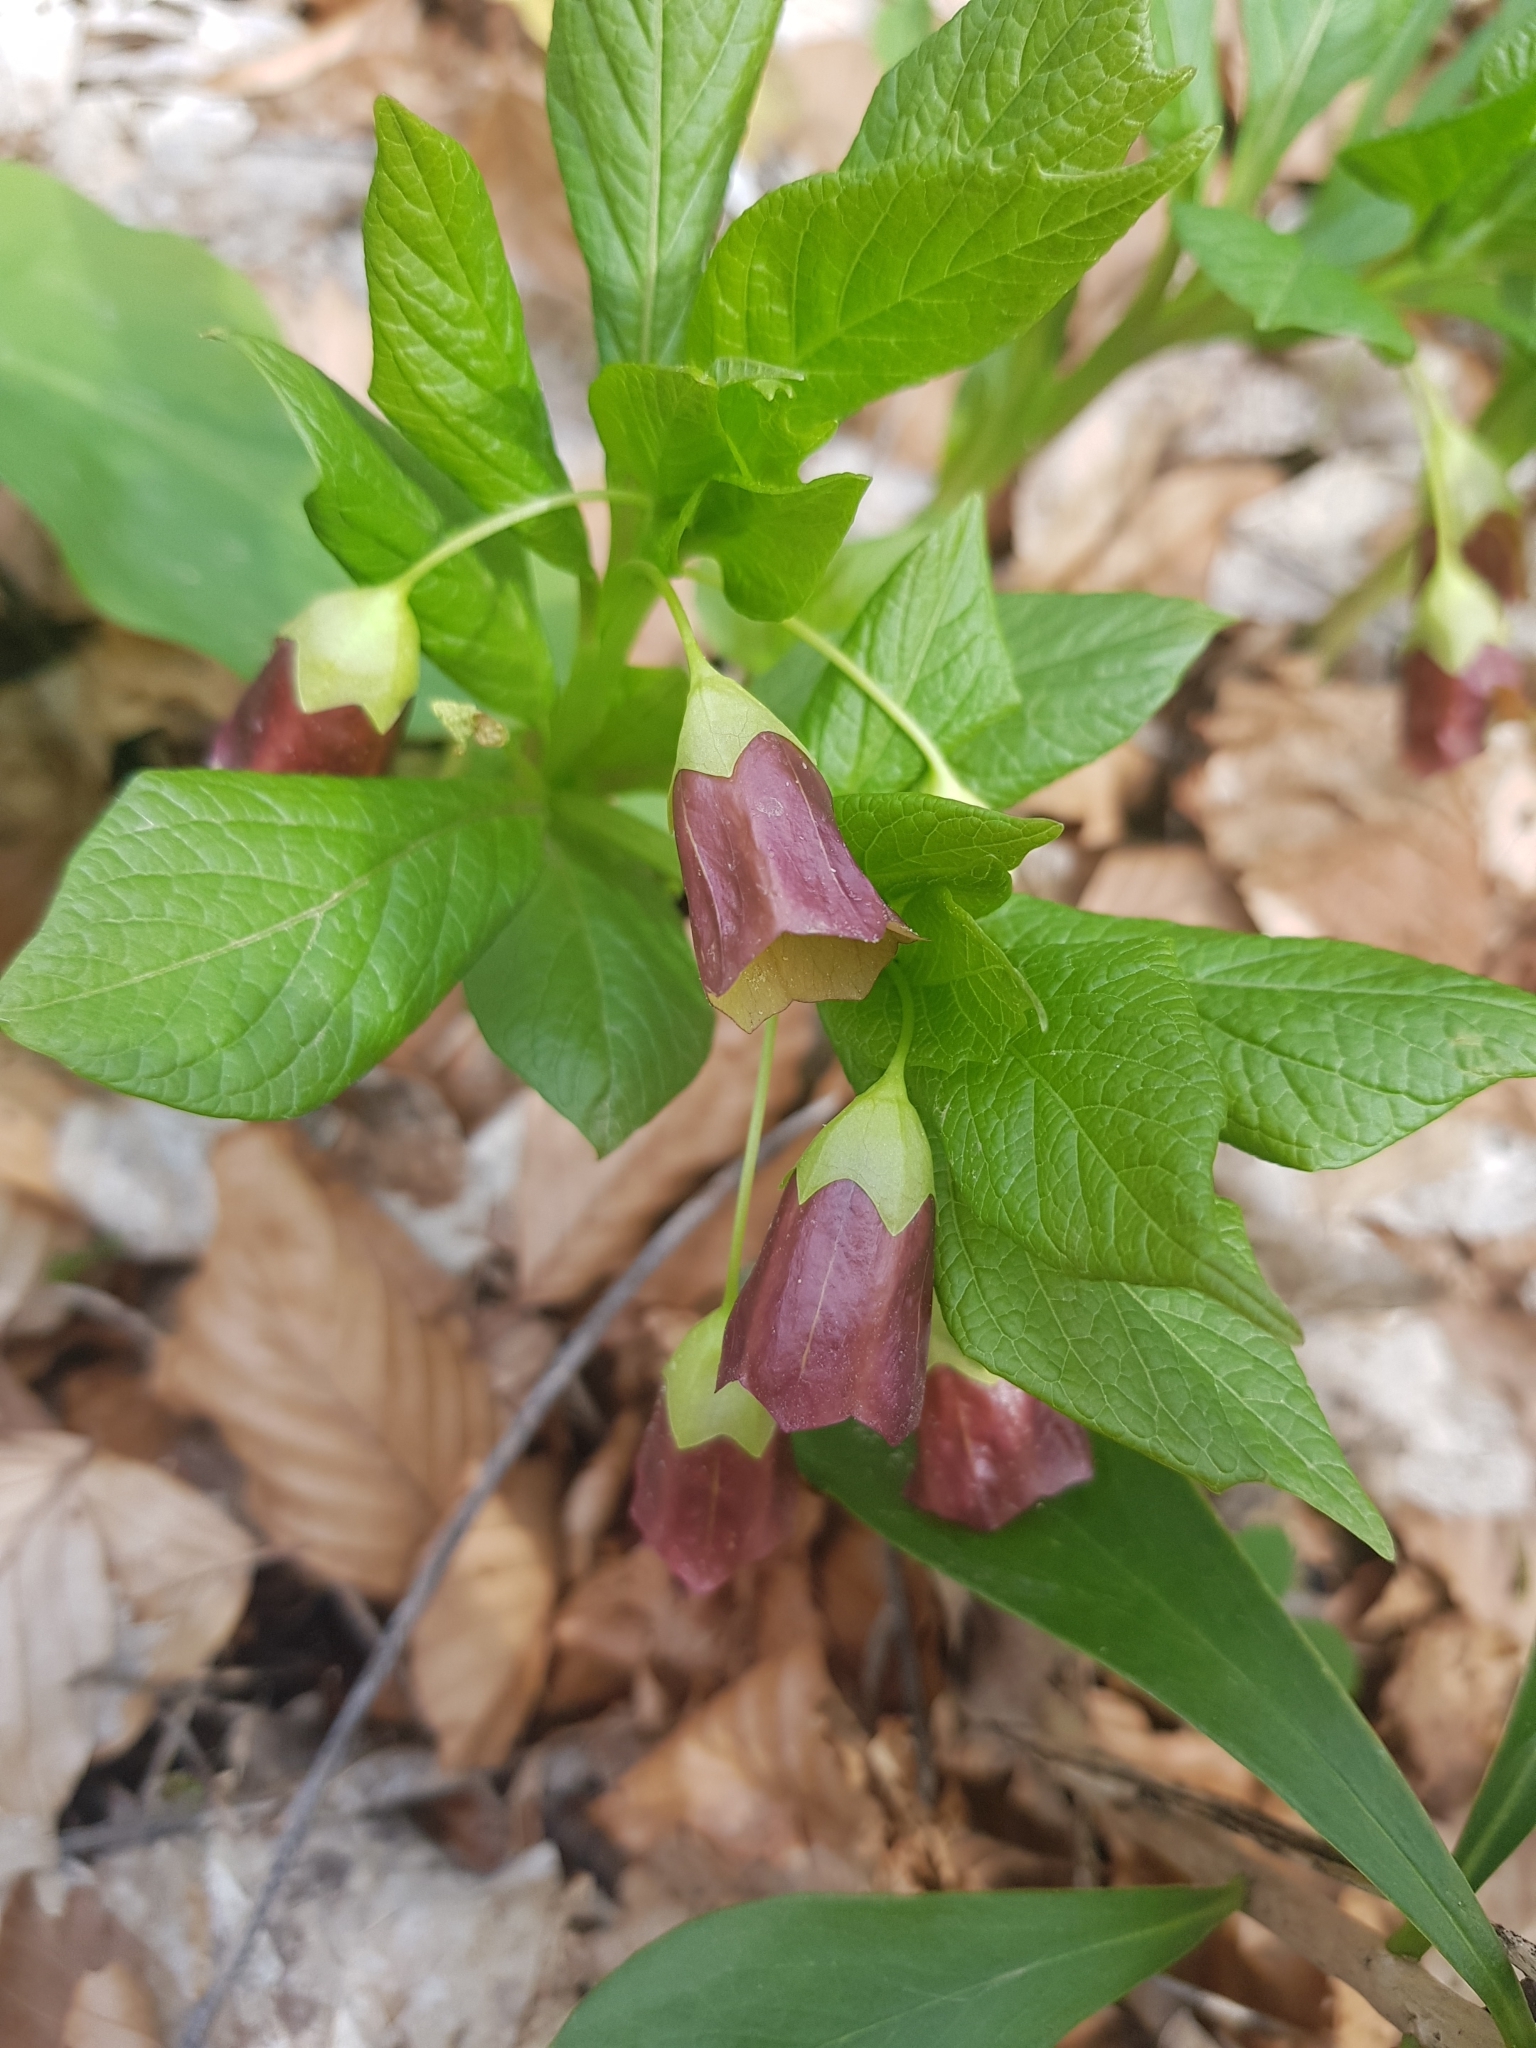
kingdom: Plantae
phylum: Tracheophyta
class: Magnoliopsida
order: Solanales
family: Solanaceae
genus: Scopolia
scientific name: Scopolia carniolica
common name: Scopolia
